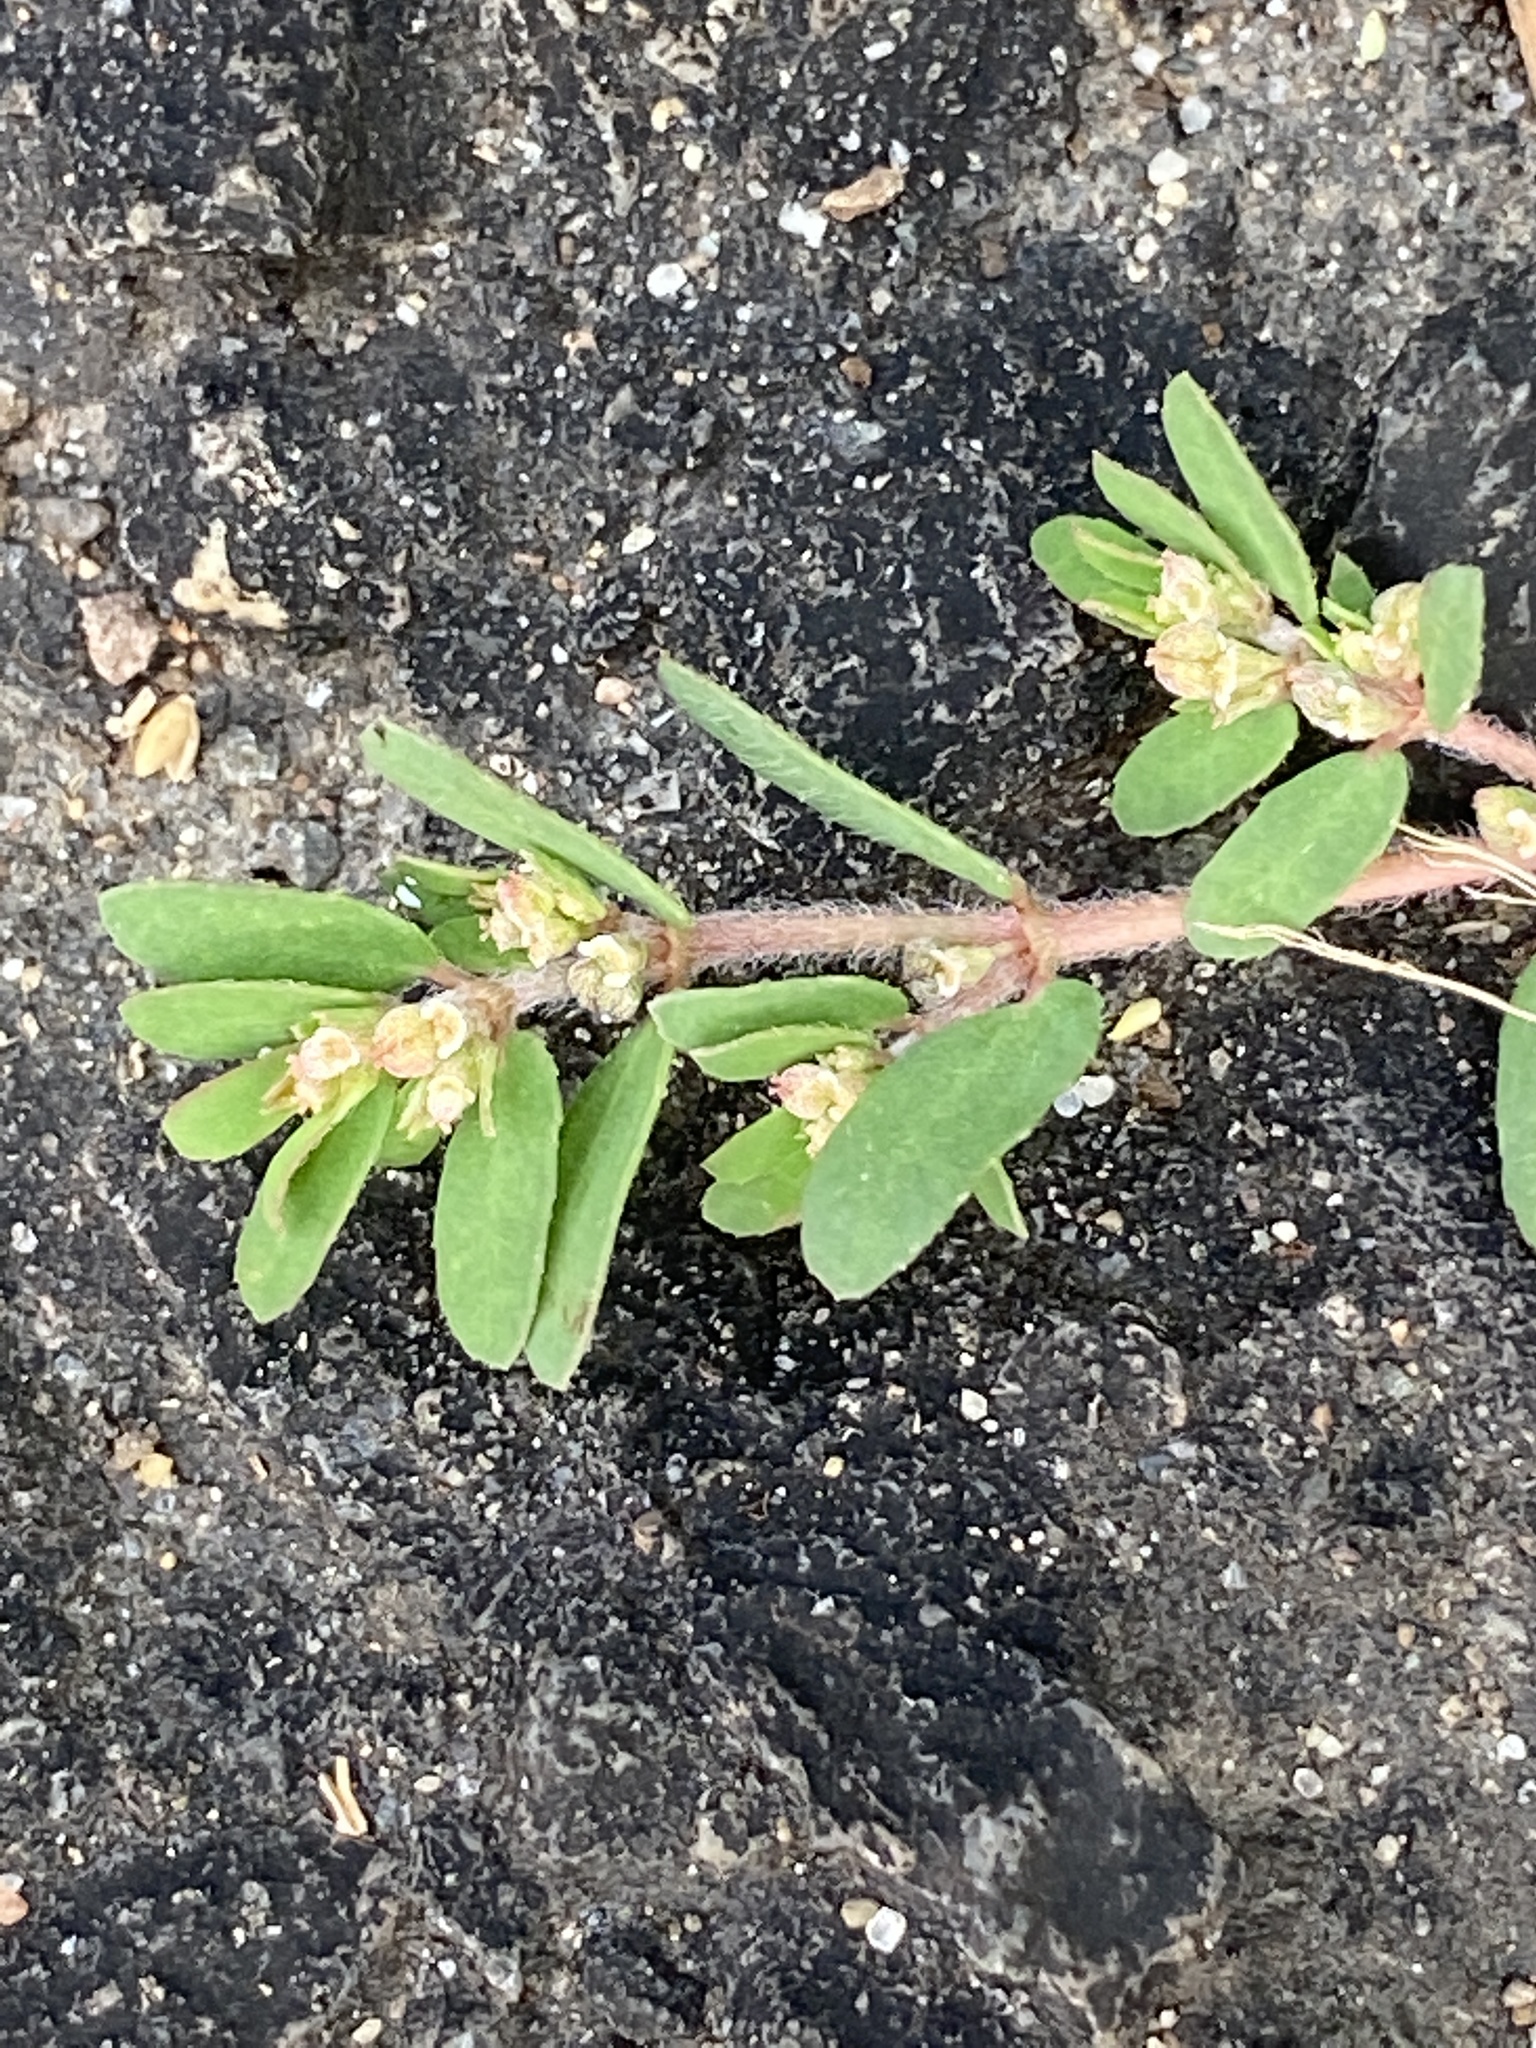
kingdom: Plantae
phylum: Tracheophyta
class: Magnoliopsida
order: Malpighiales
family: Euphorbiaceae
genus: Euphorbia
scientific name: Euphorbia maculata
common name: Spotted spurge
